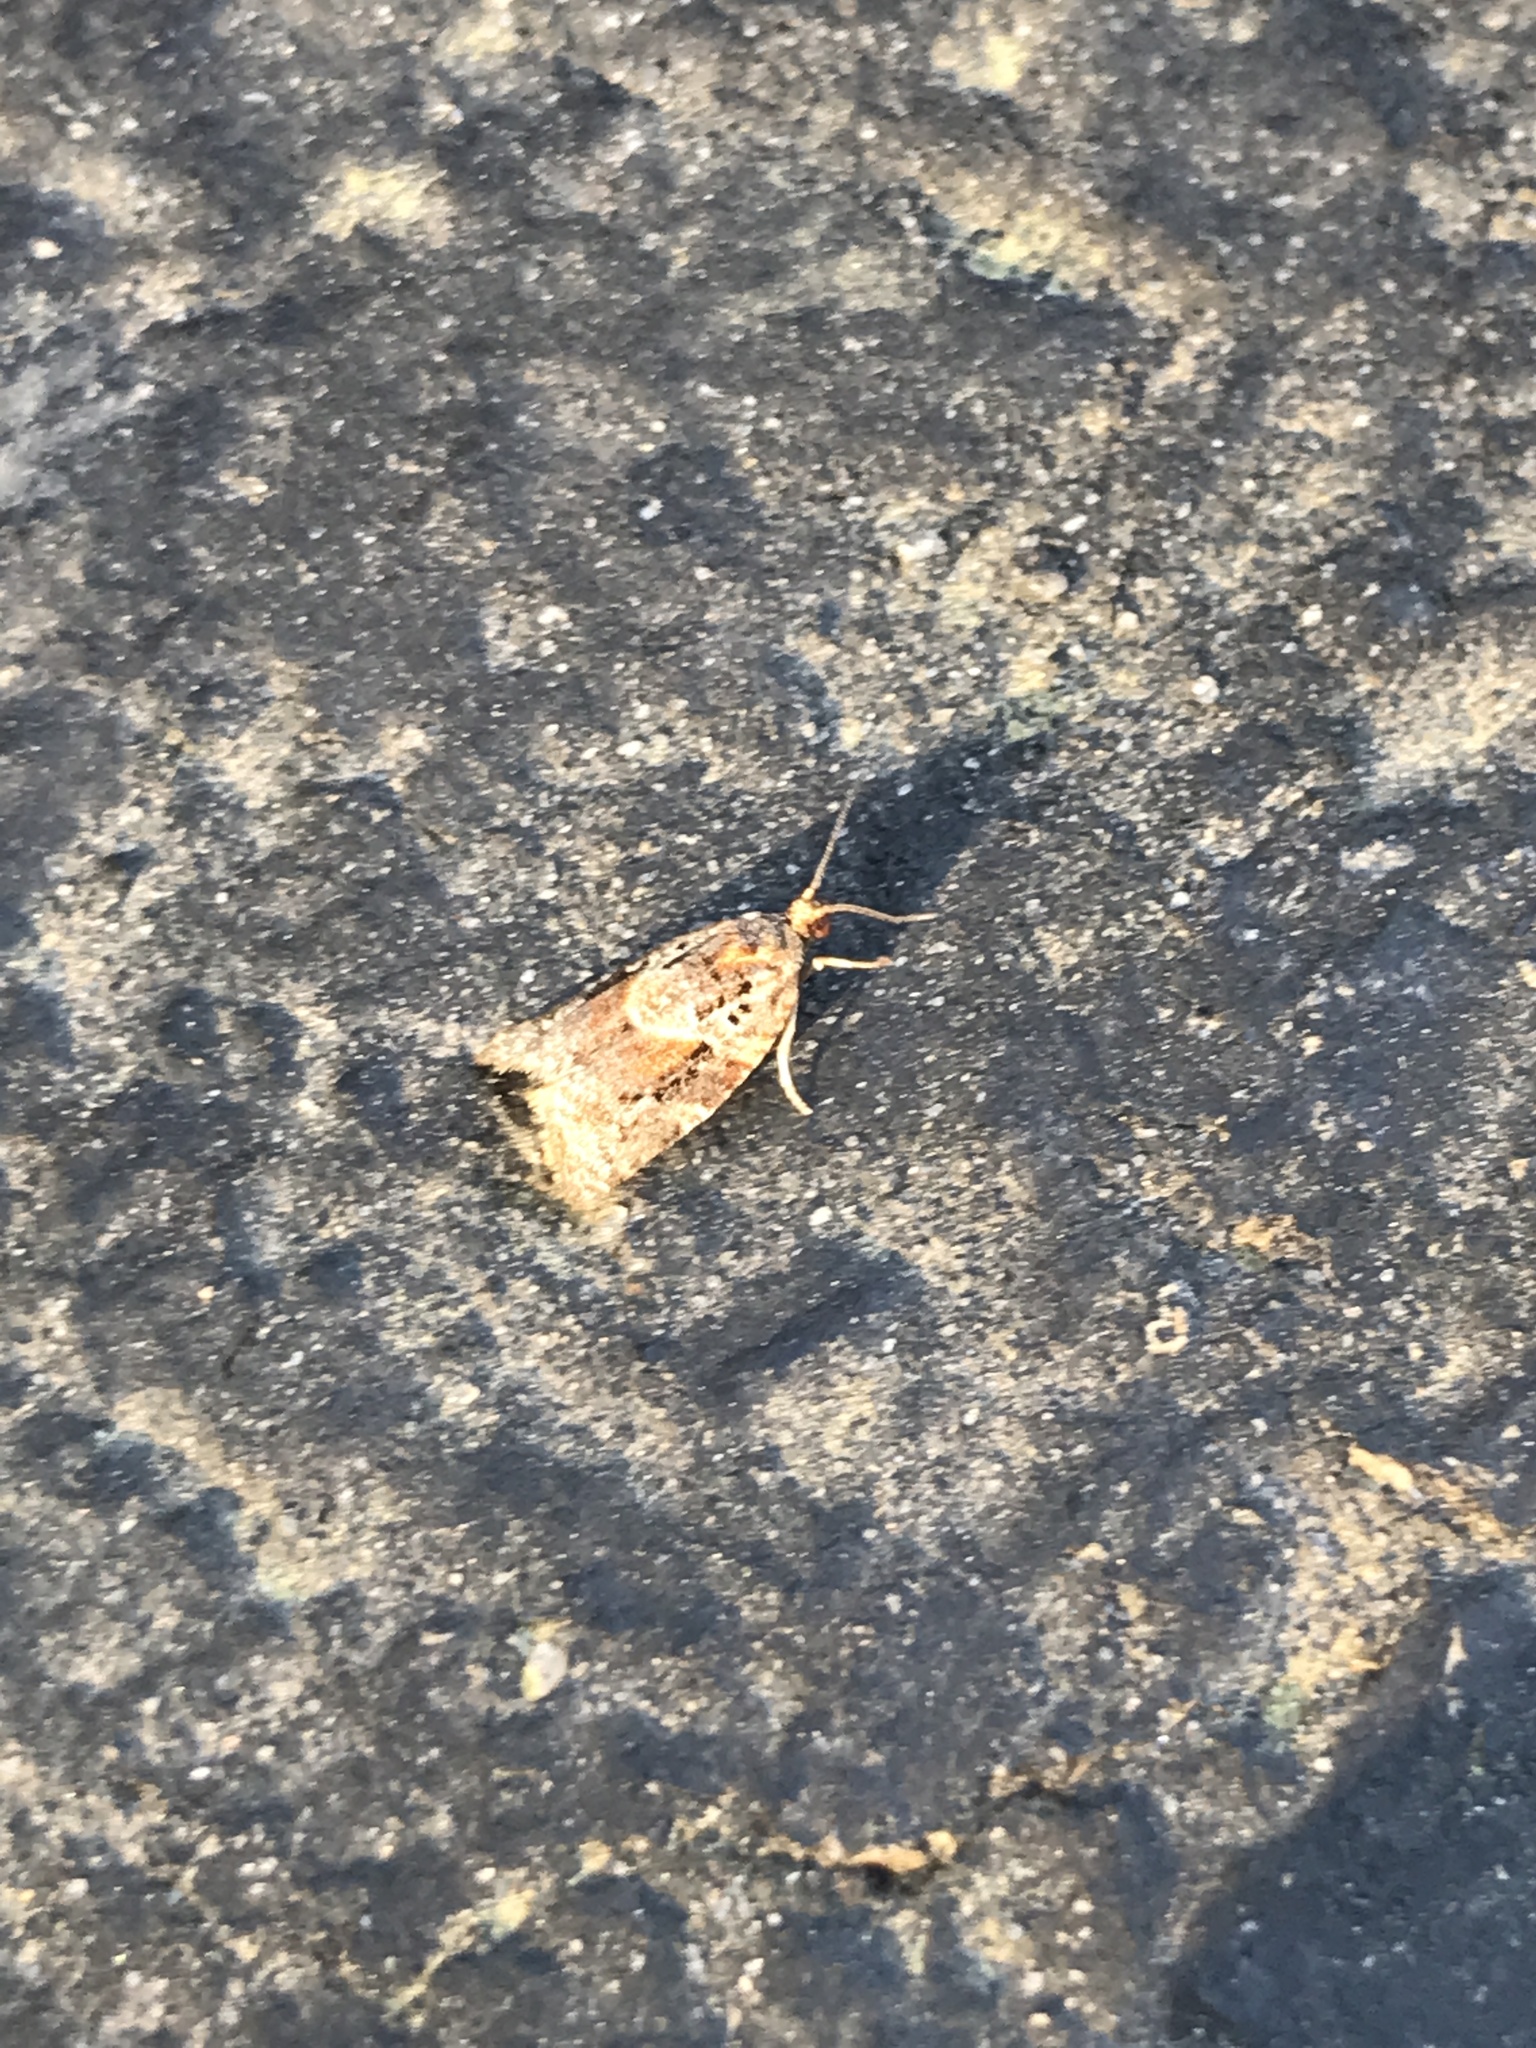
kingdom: Animalia
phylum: Arthropoda
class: Insecta
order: Lepidoptera
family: Tortricidae
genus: Argyrotaenia
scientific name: Argyrotaenia velutinana
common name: Red-banded leafroller moth
